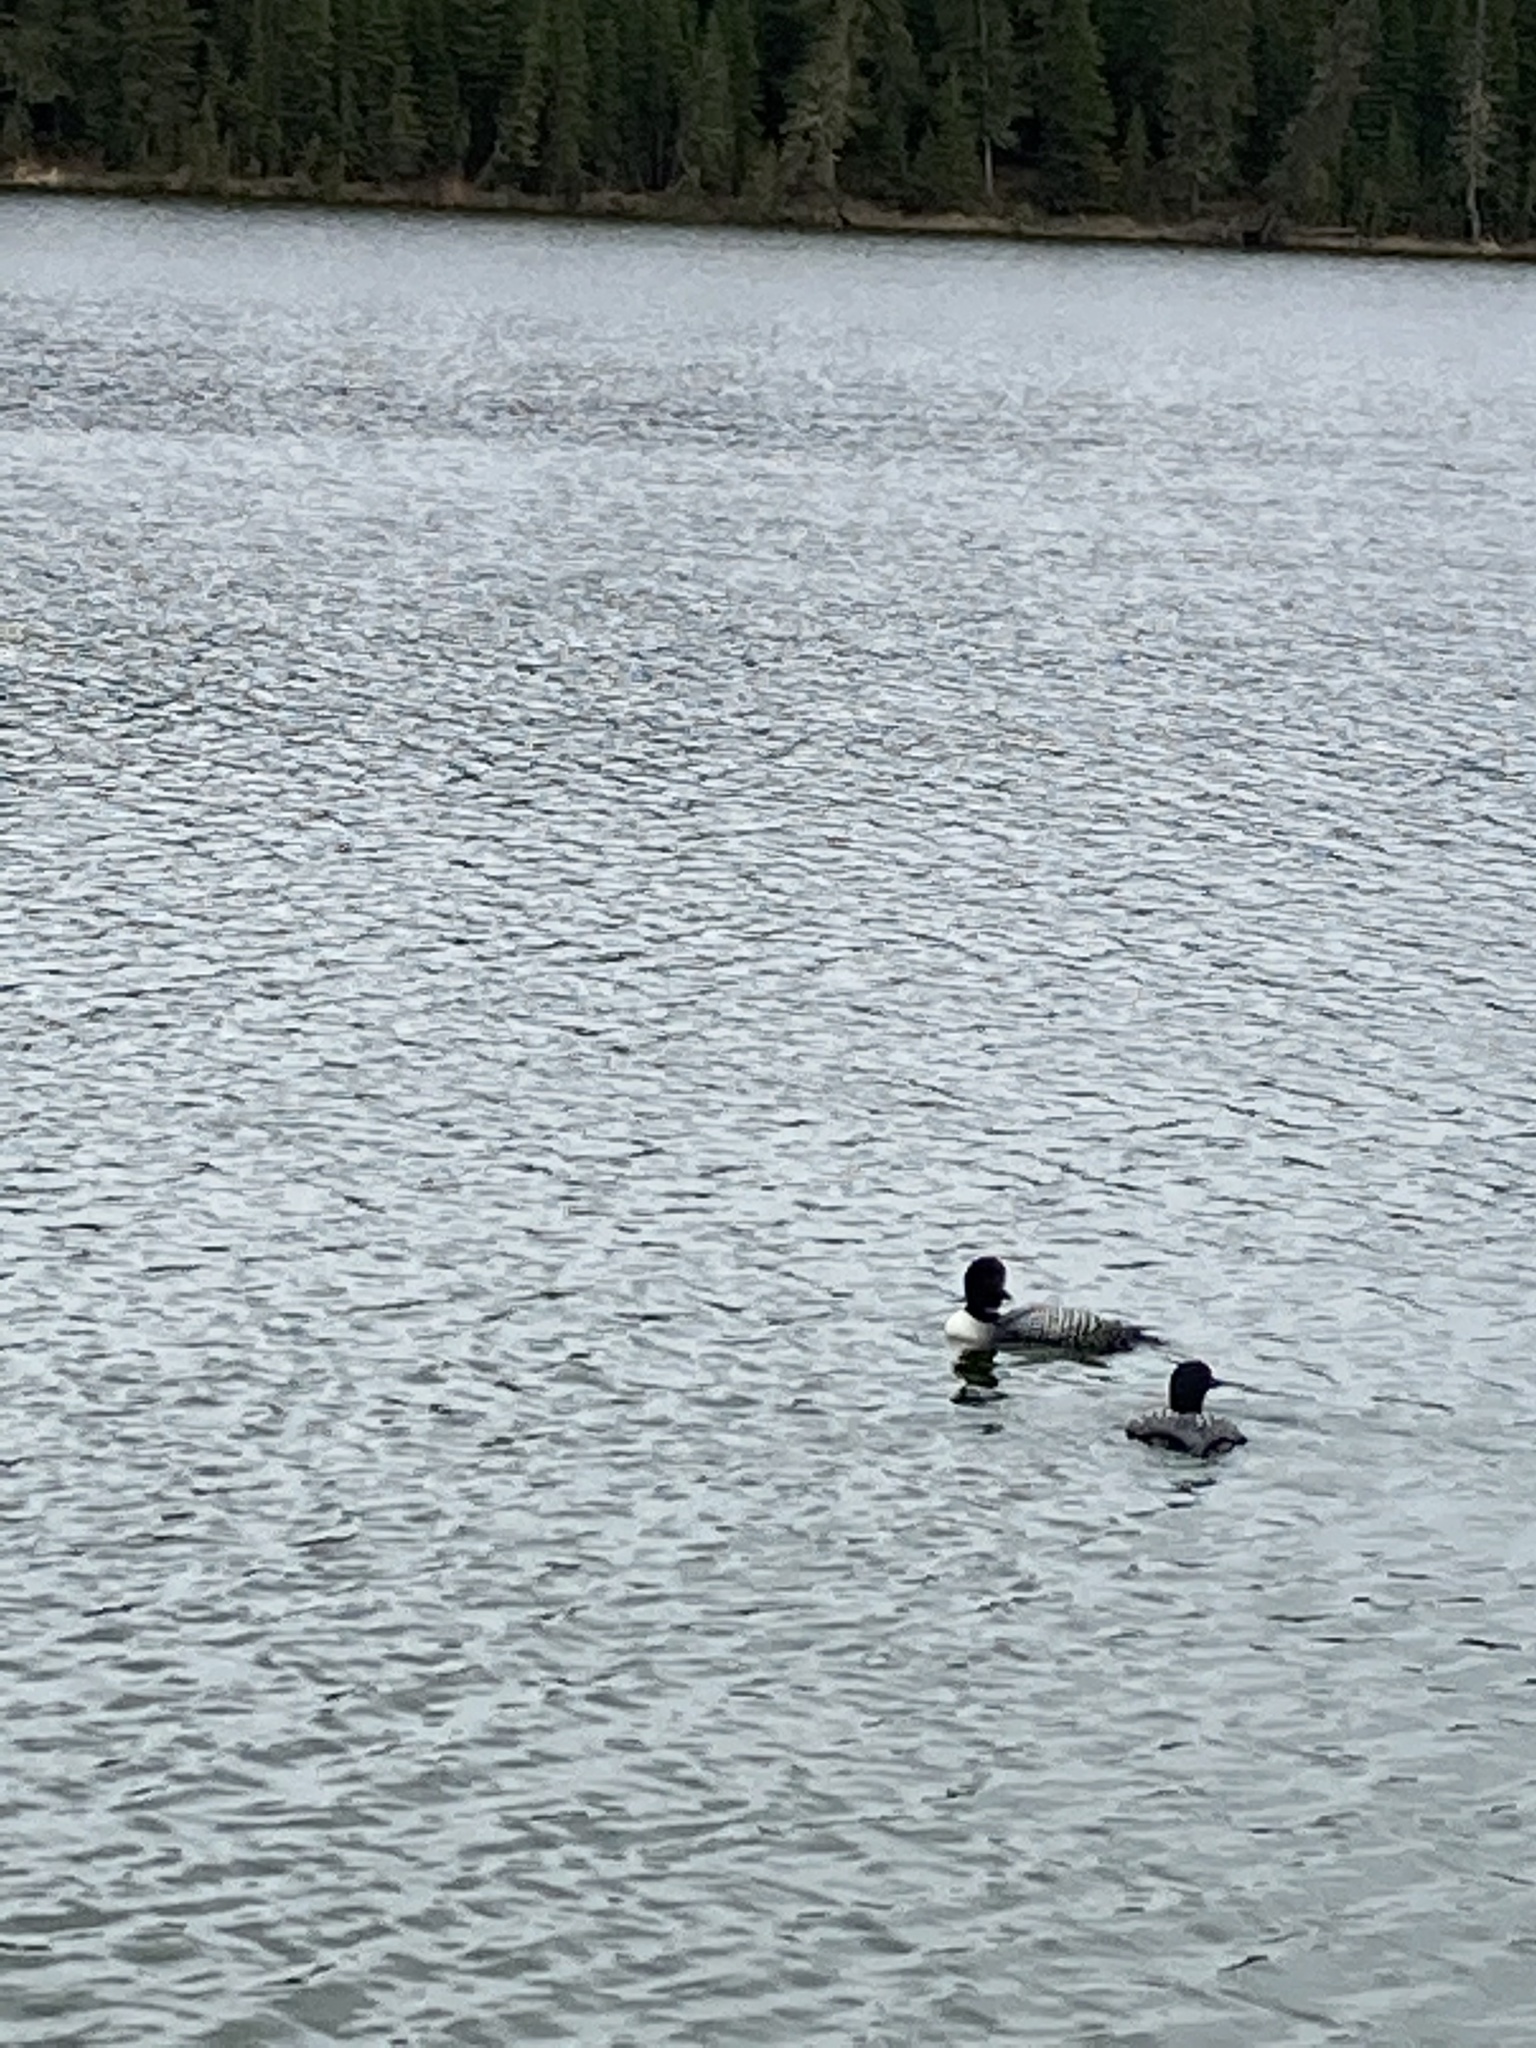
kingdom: Animalia
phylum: Chordata
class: Aves
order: Gaviiformes
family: Gaviidae
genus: Gavia
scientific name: Gavia immer
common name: Common loon
